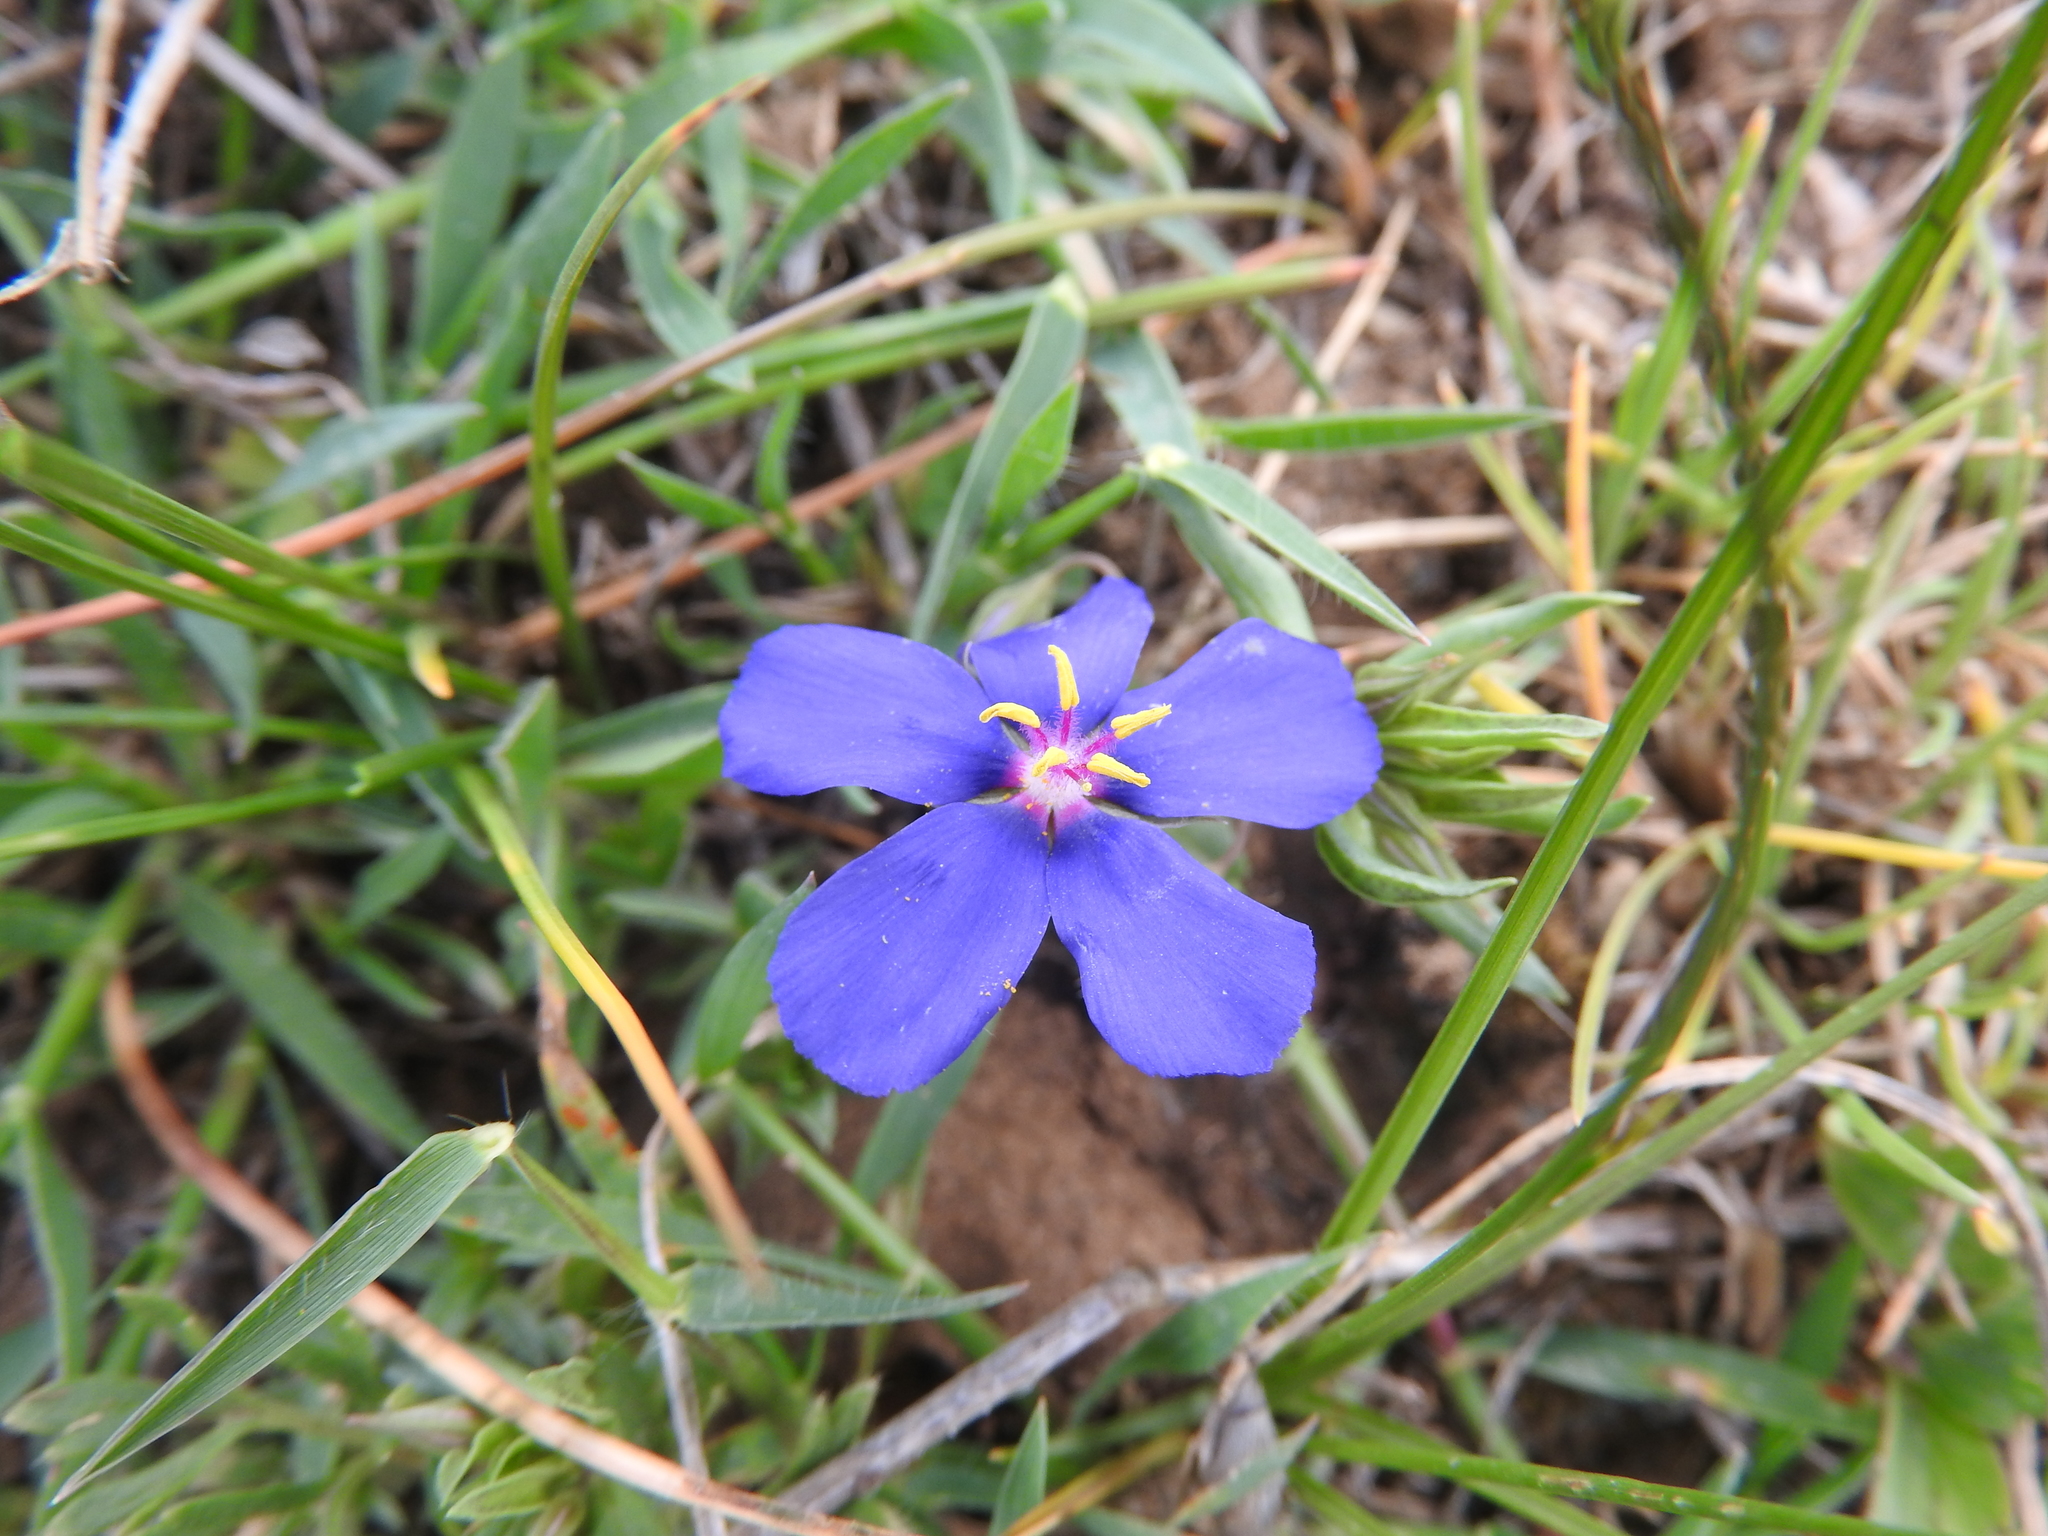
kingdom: Plantae
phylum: Tracheophyta
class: Magnoliopsida
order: Ericales
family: Primulaceae
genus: Lysimachia
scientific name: Lysimachia monelli
